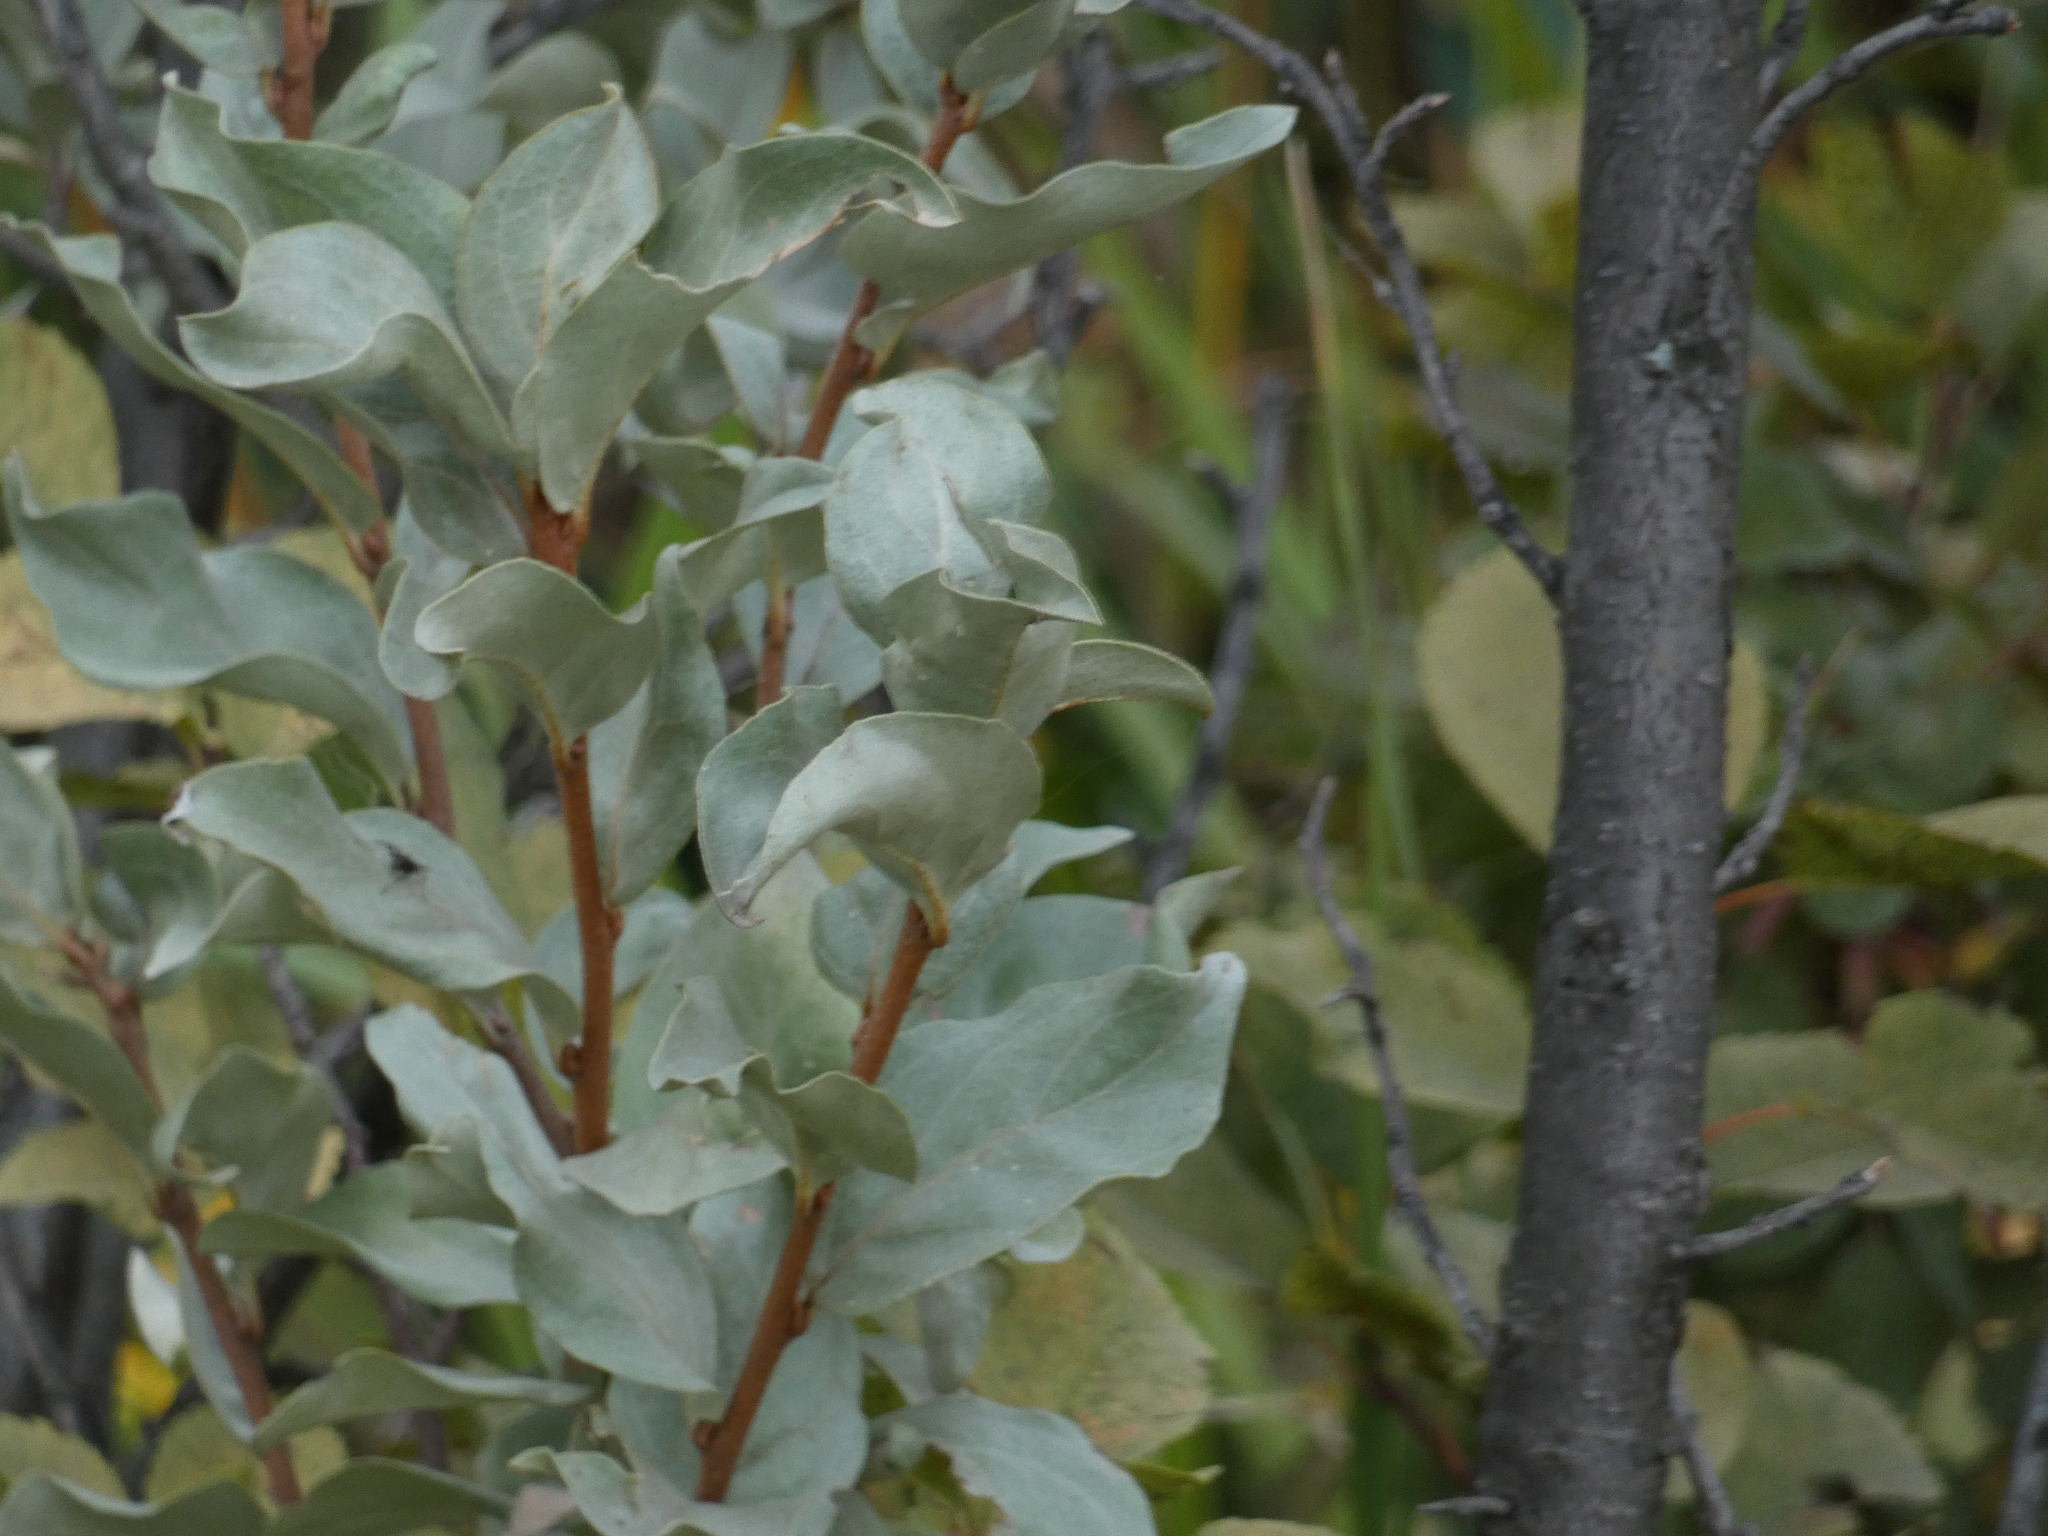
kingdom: Plantae
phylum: Tracheophyta
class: Magnoliopsida
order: Rosales
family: Elaeagnaceae
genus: Elaeagnus
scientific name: Elaeagnus commutata
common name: Silverberry
